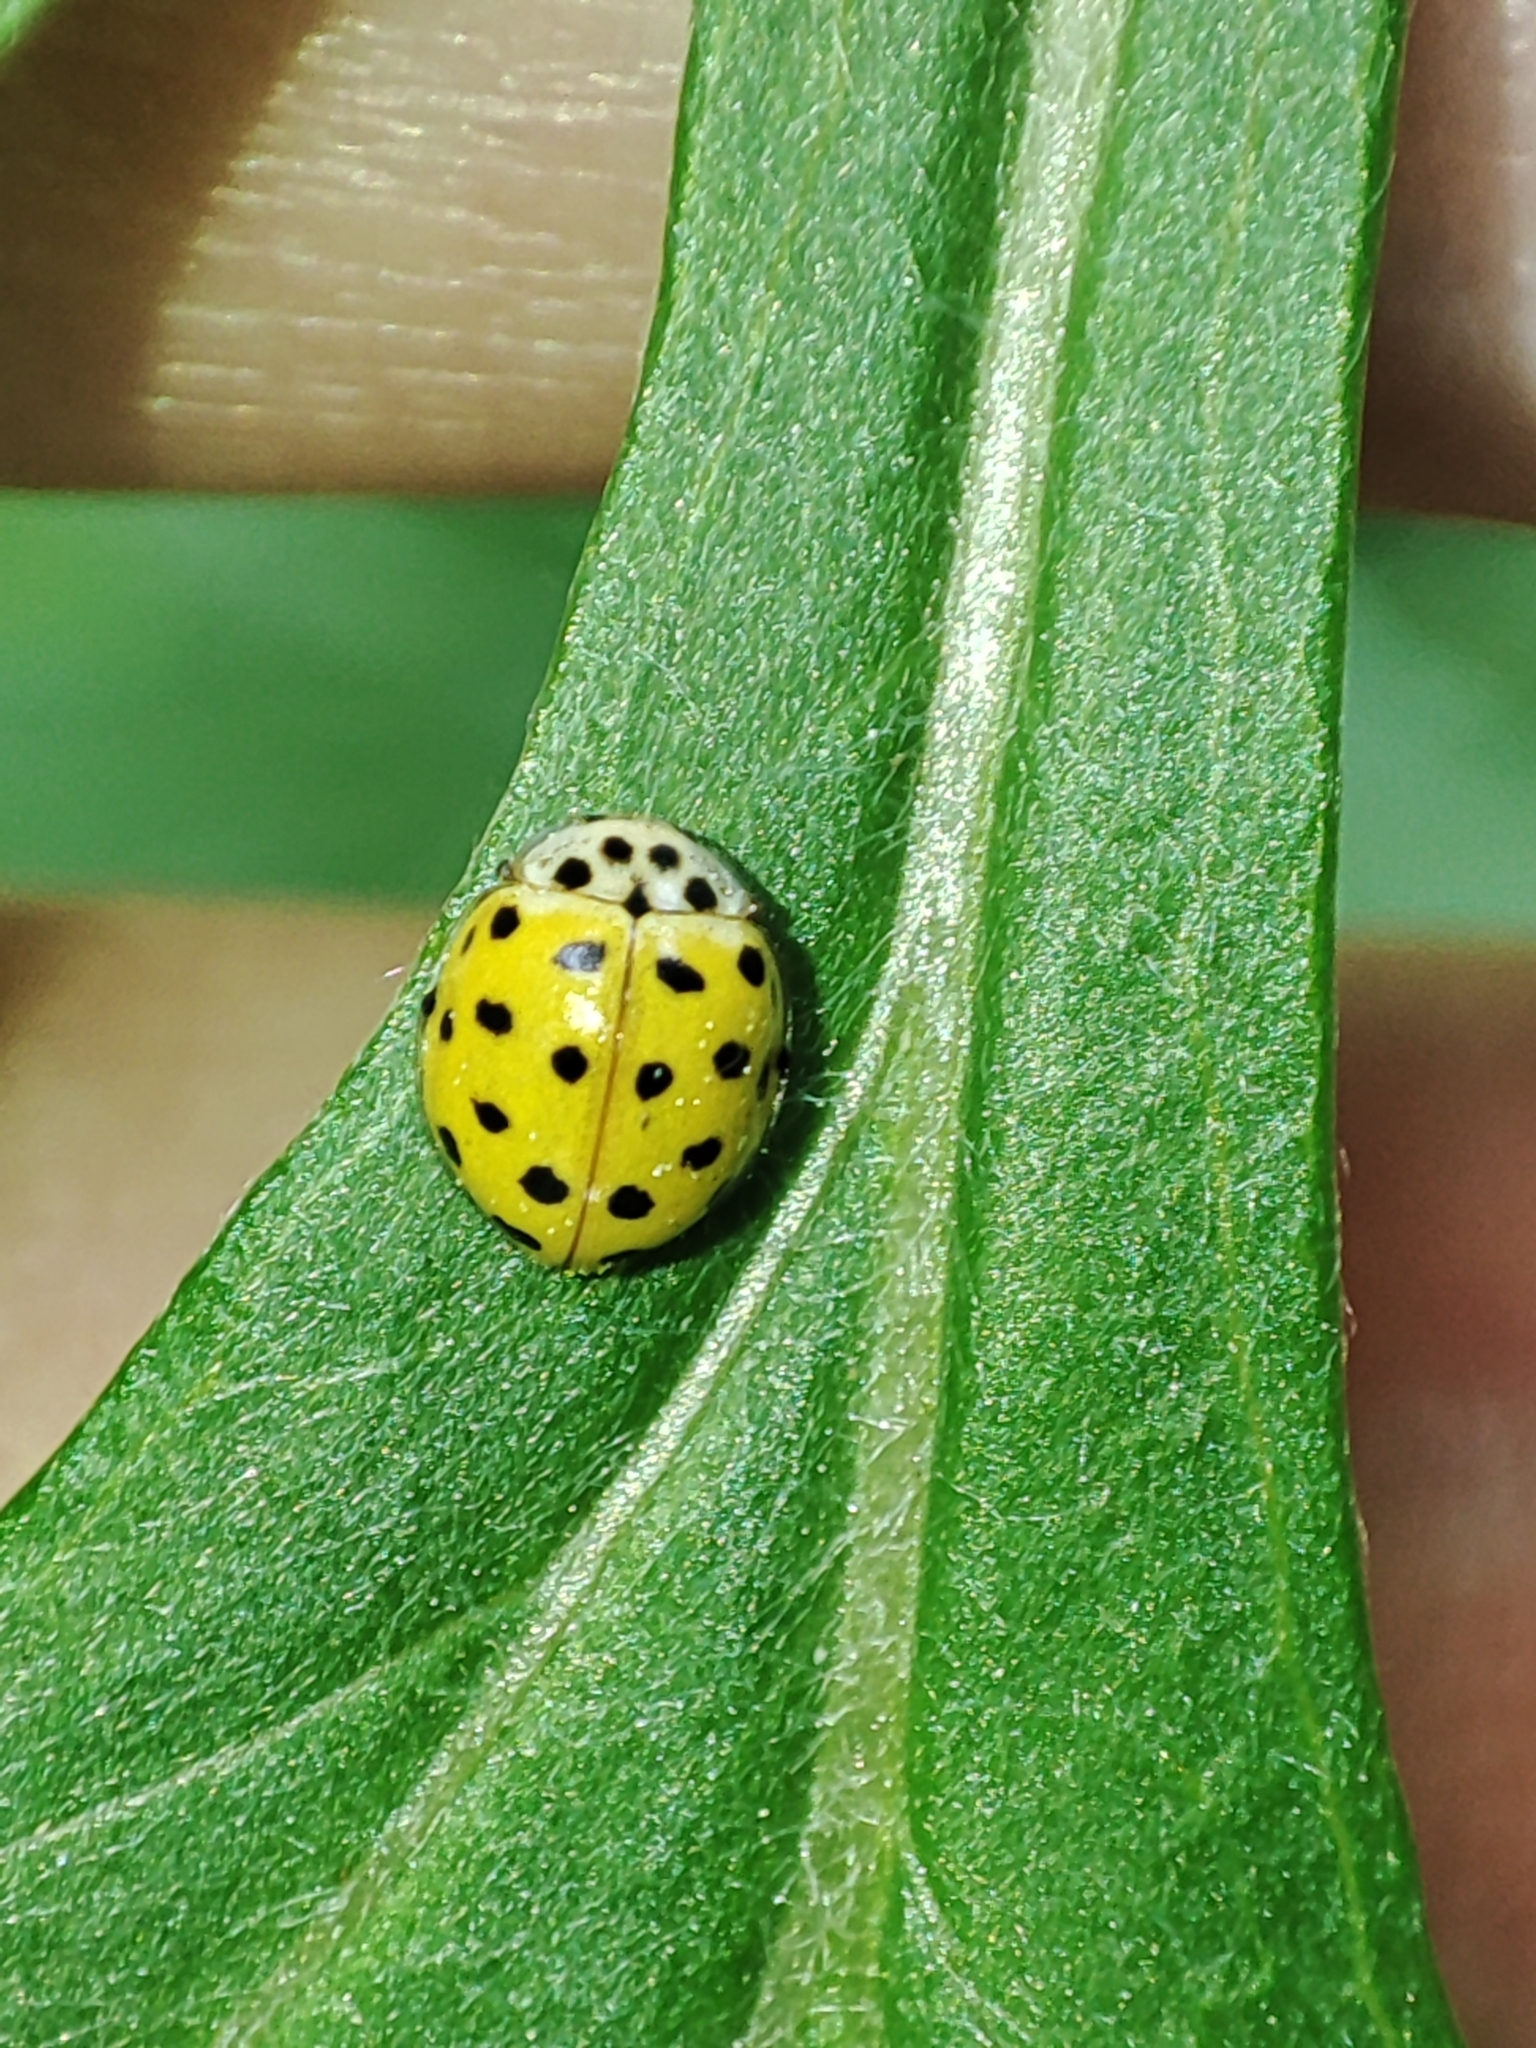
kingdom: Animalia
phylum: Arthropoda
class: Insecta
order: Coleoptera
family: Coccinellidae
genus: Psyllobora
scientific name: Psyllobora vigintiduopunctata
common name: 22-spot ladybird
